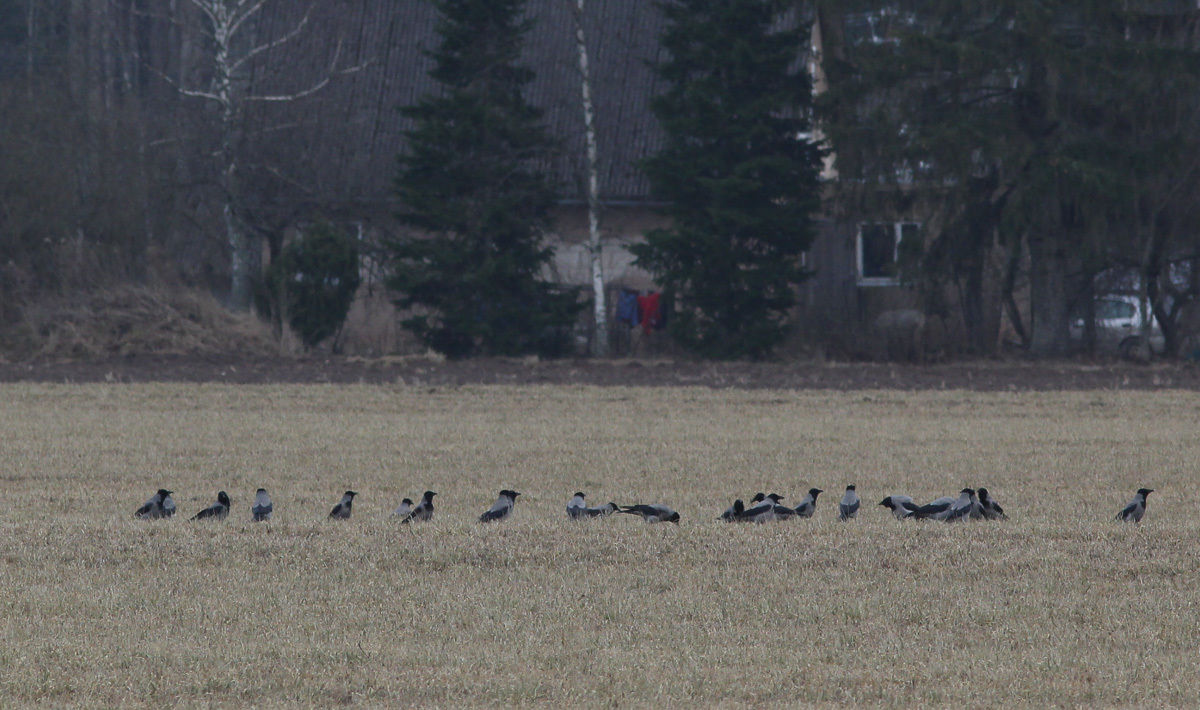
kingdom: Animalia
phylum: Chordata
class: Aves
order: Passeriformes
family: Corvidae
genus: Corvus
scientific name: Corvus cornix
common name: Hooded crow
